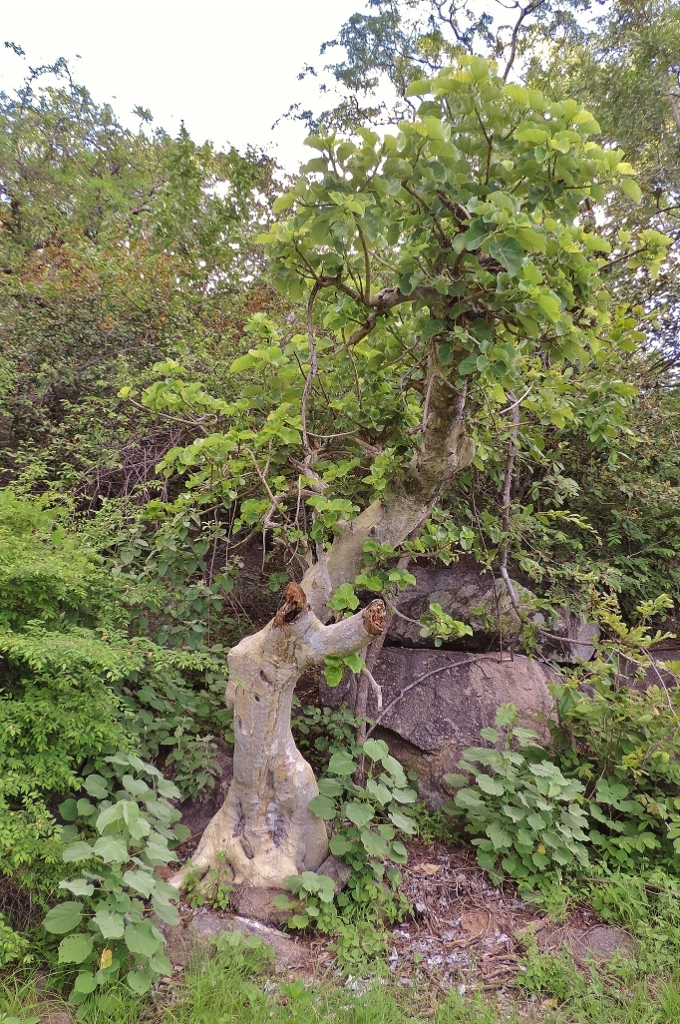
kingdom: Plantae
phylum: Tracheophyta
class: Magnoliopsida
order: Rosales
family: Moraceae
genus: Ficus
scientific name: Ficus abutilifolia
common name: Large-leaved rock fig
